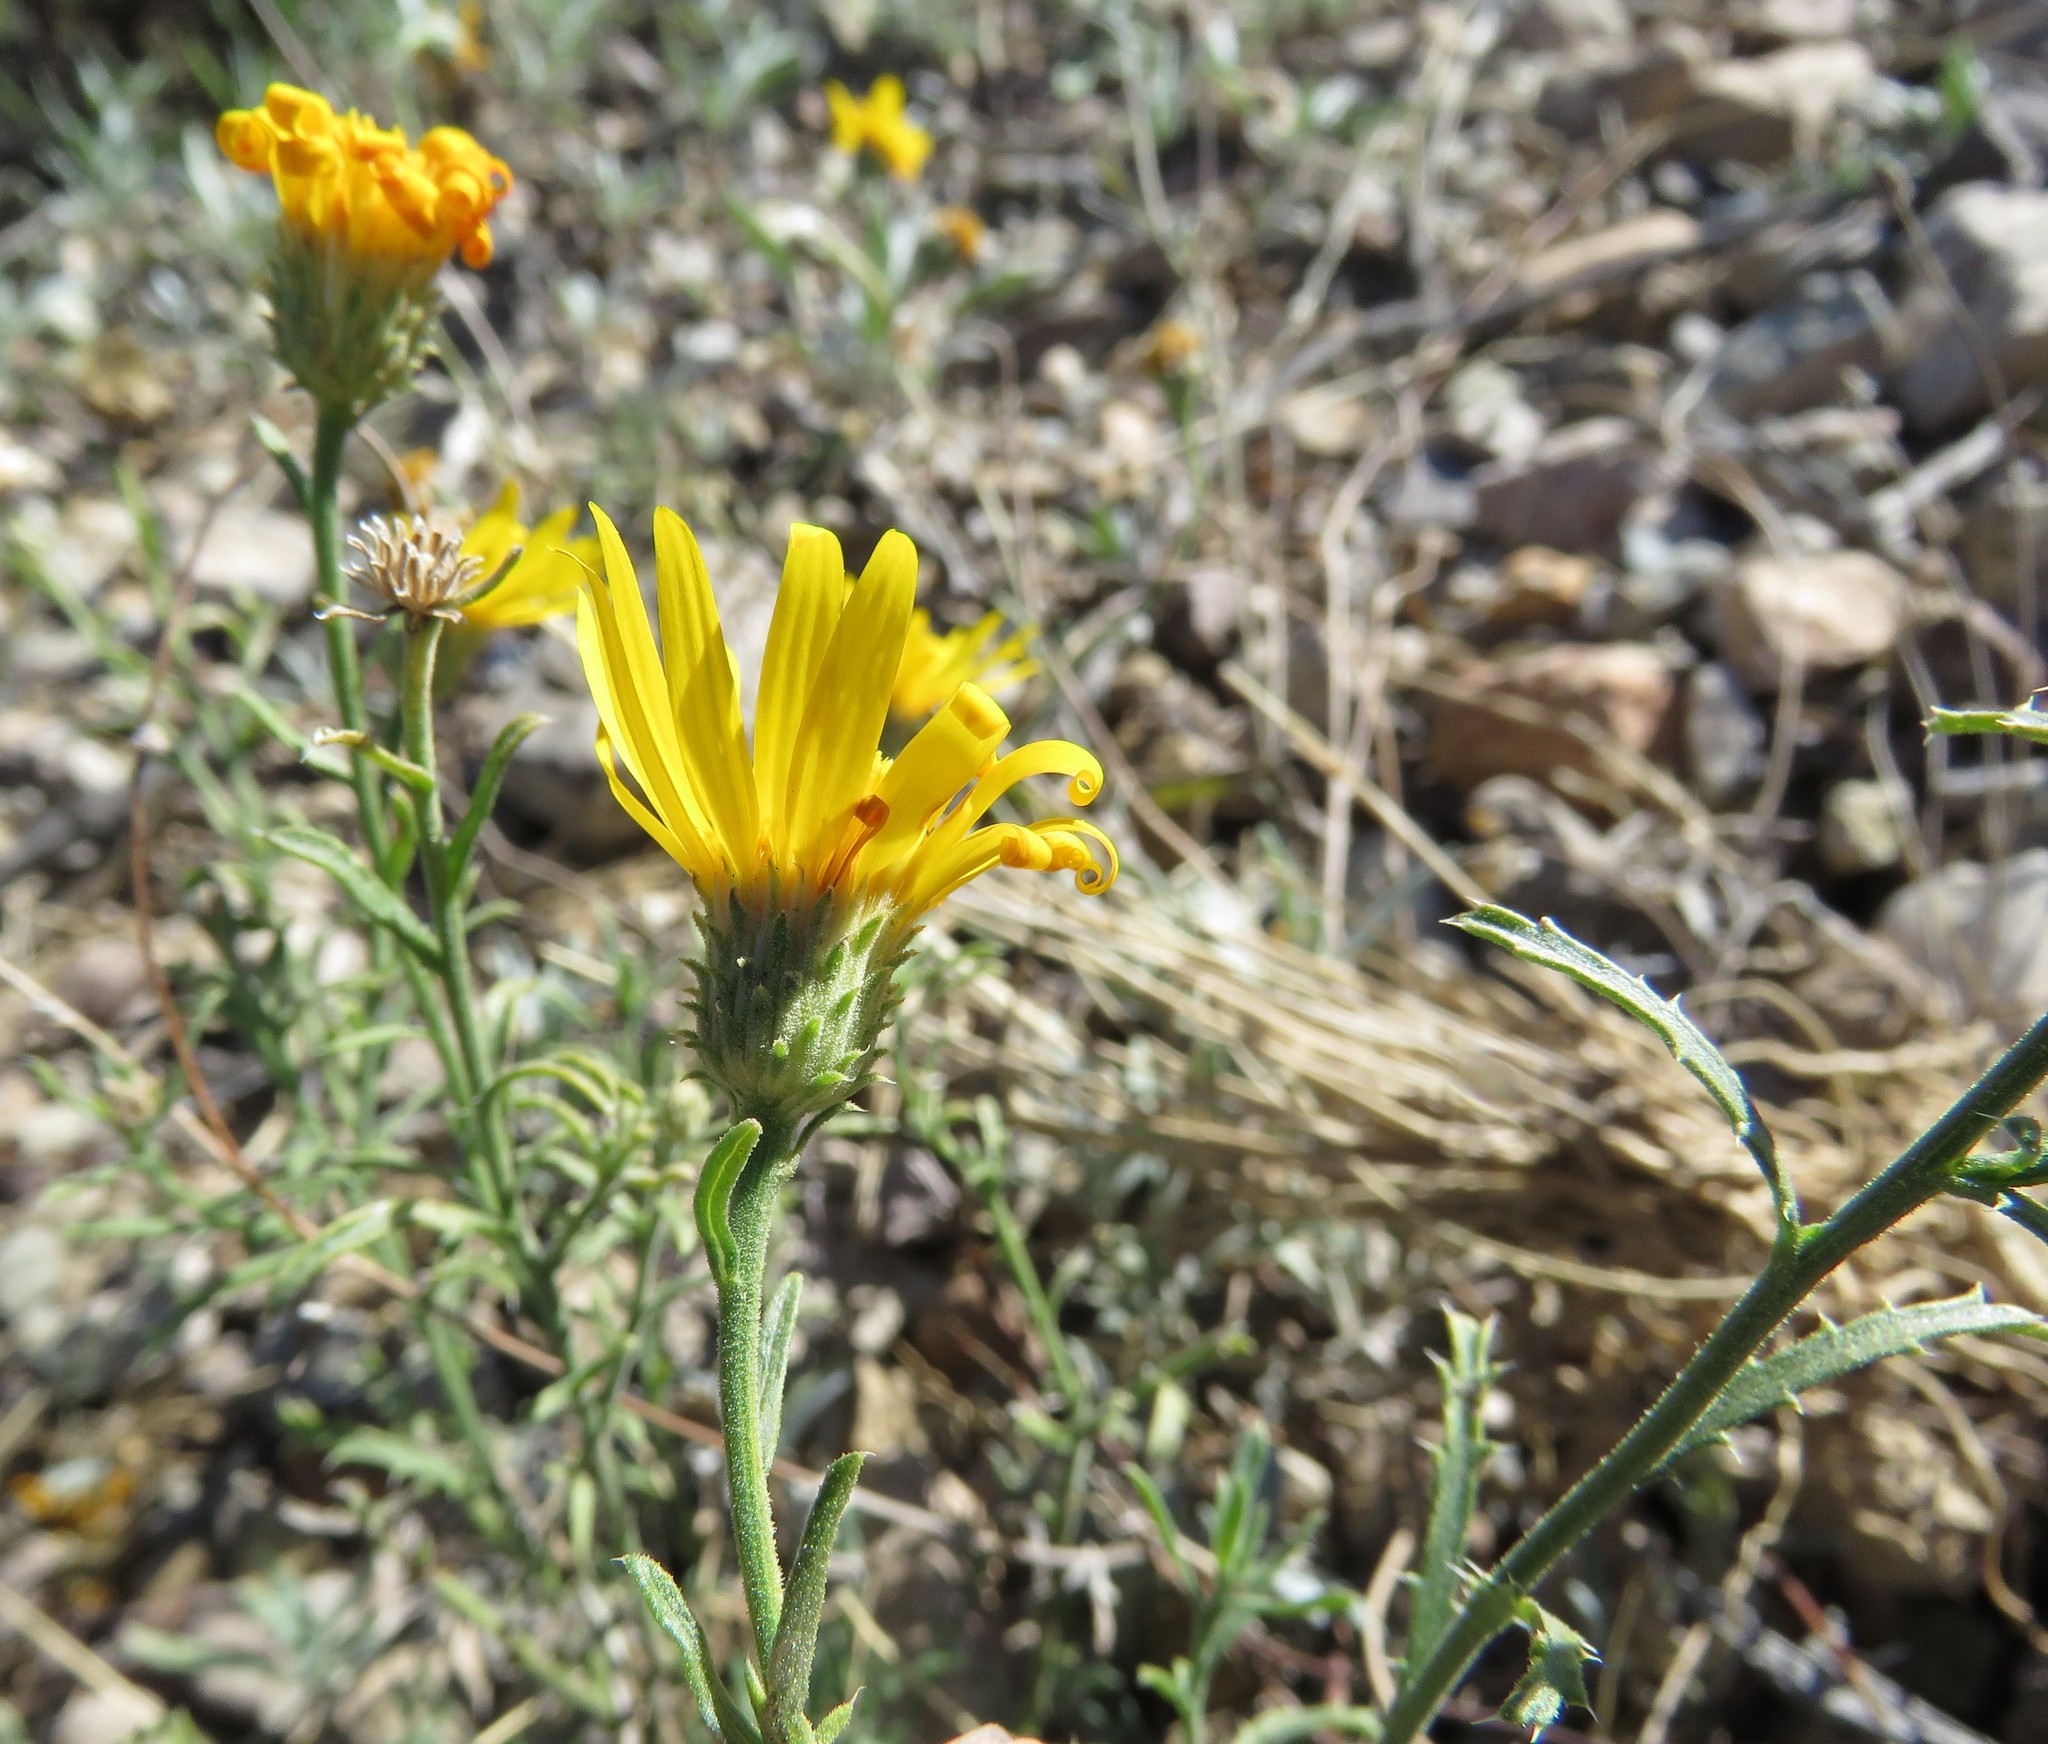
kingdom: Plantae
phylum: Tracheophyta
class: Magnoliopsida
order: Asterales
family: Asteraceae
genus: Xanthisma
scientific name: Xanthisma spinulosum
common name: Spiny goldenweed
